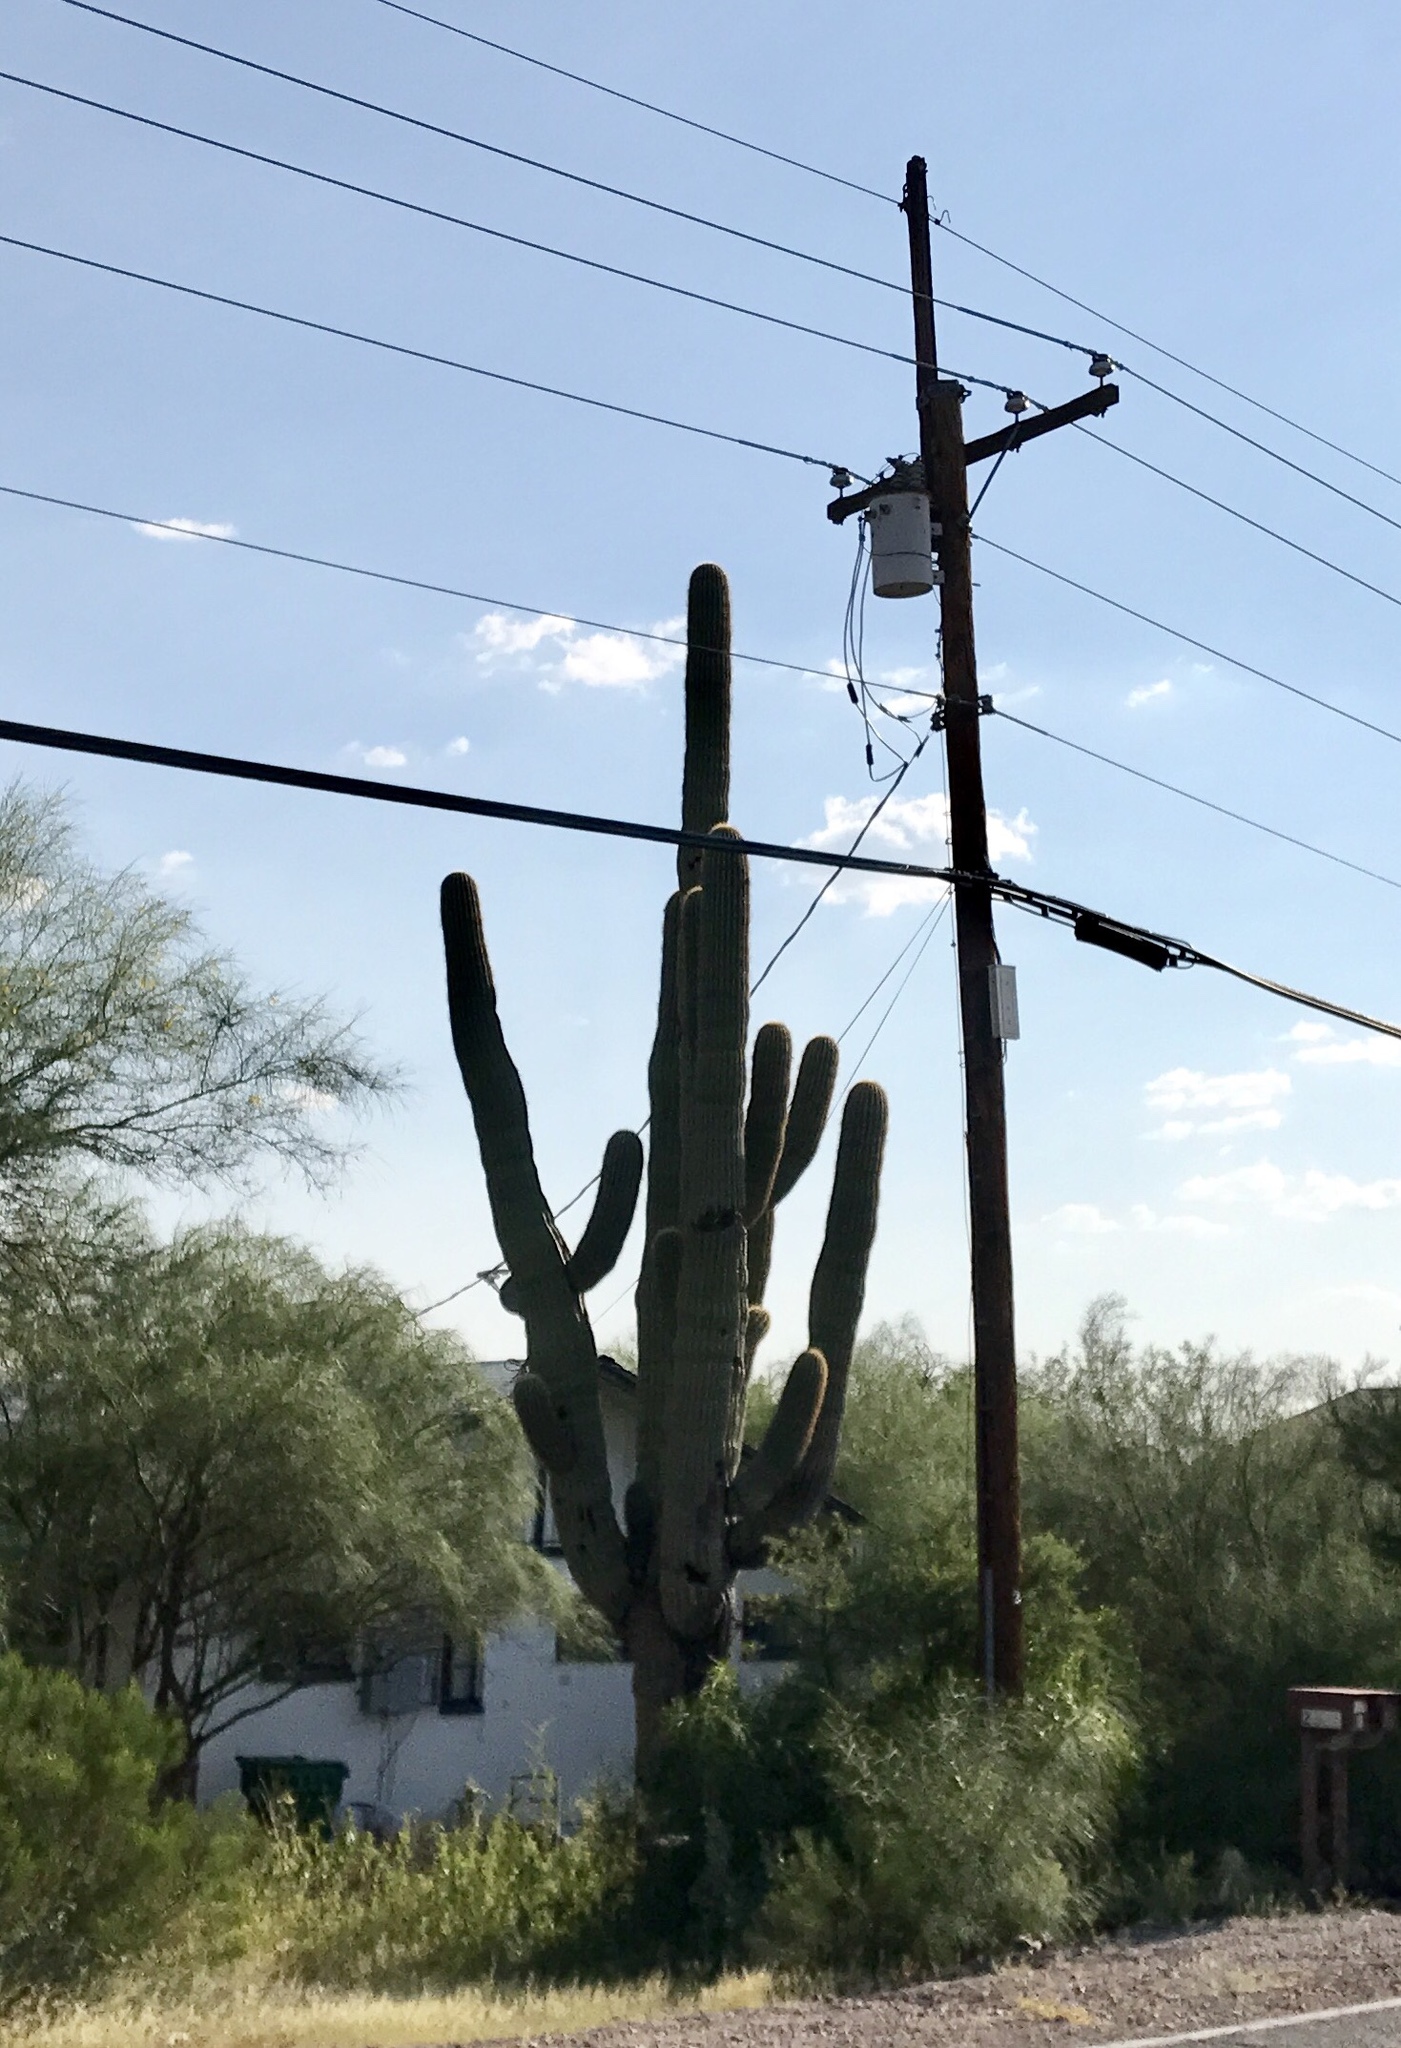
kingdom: Plantae
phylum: Tracheophyta
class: Magnoliopsida
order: Caryophyllales
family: Cactaceae
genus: Carnegiea
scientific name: Carnegiea gigantea
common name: Saguaro
